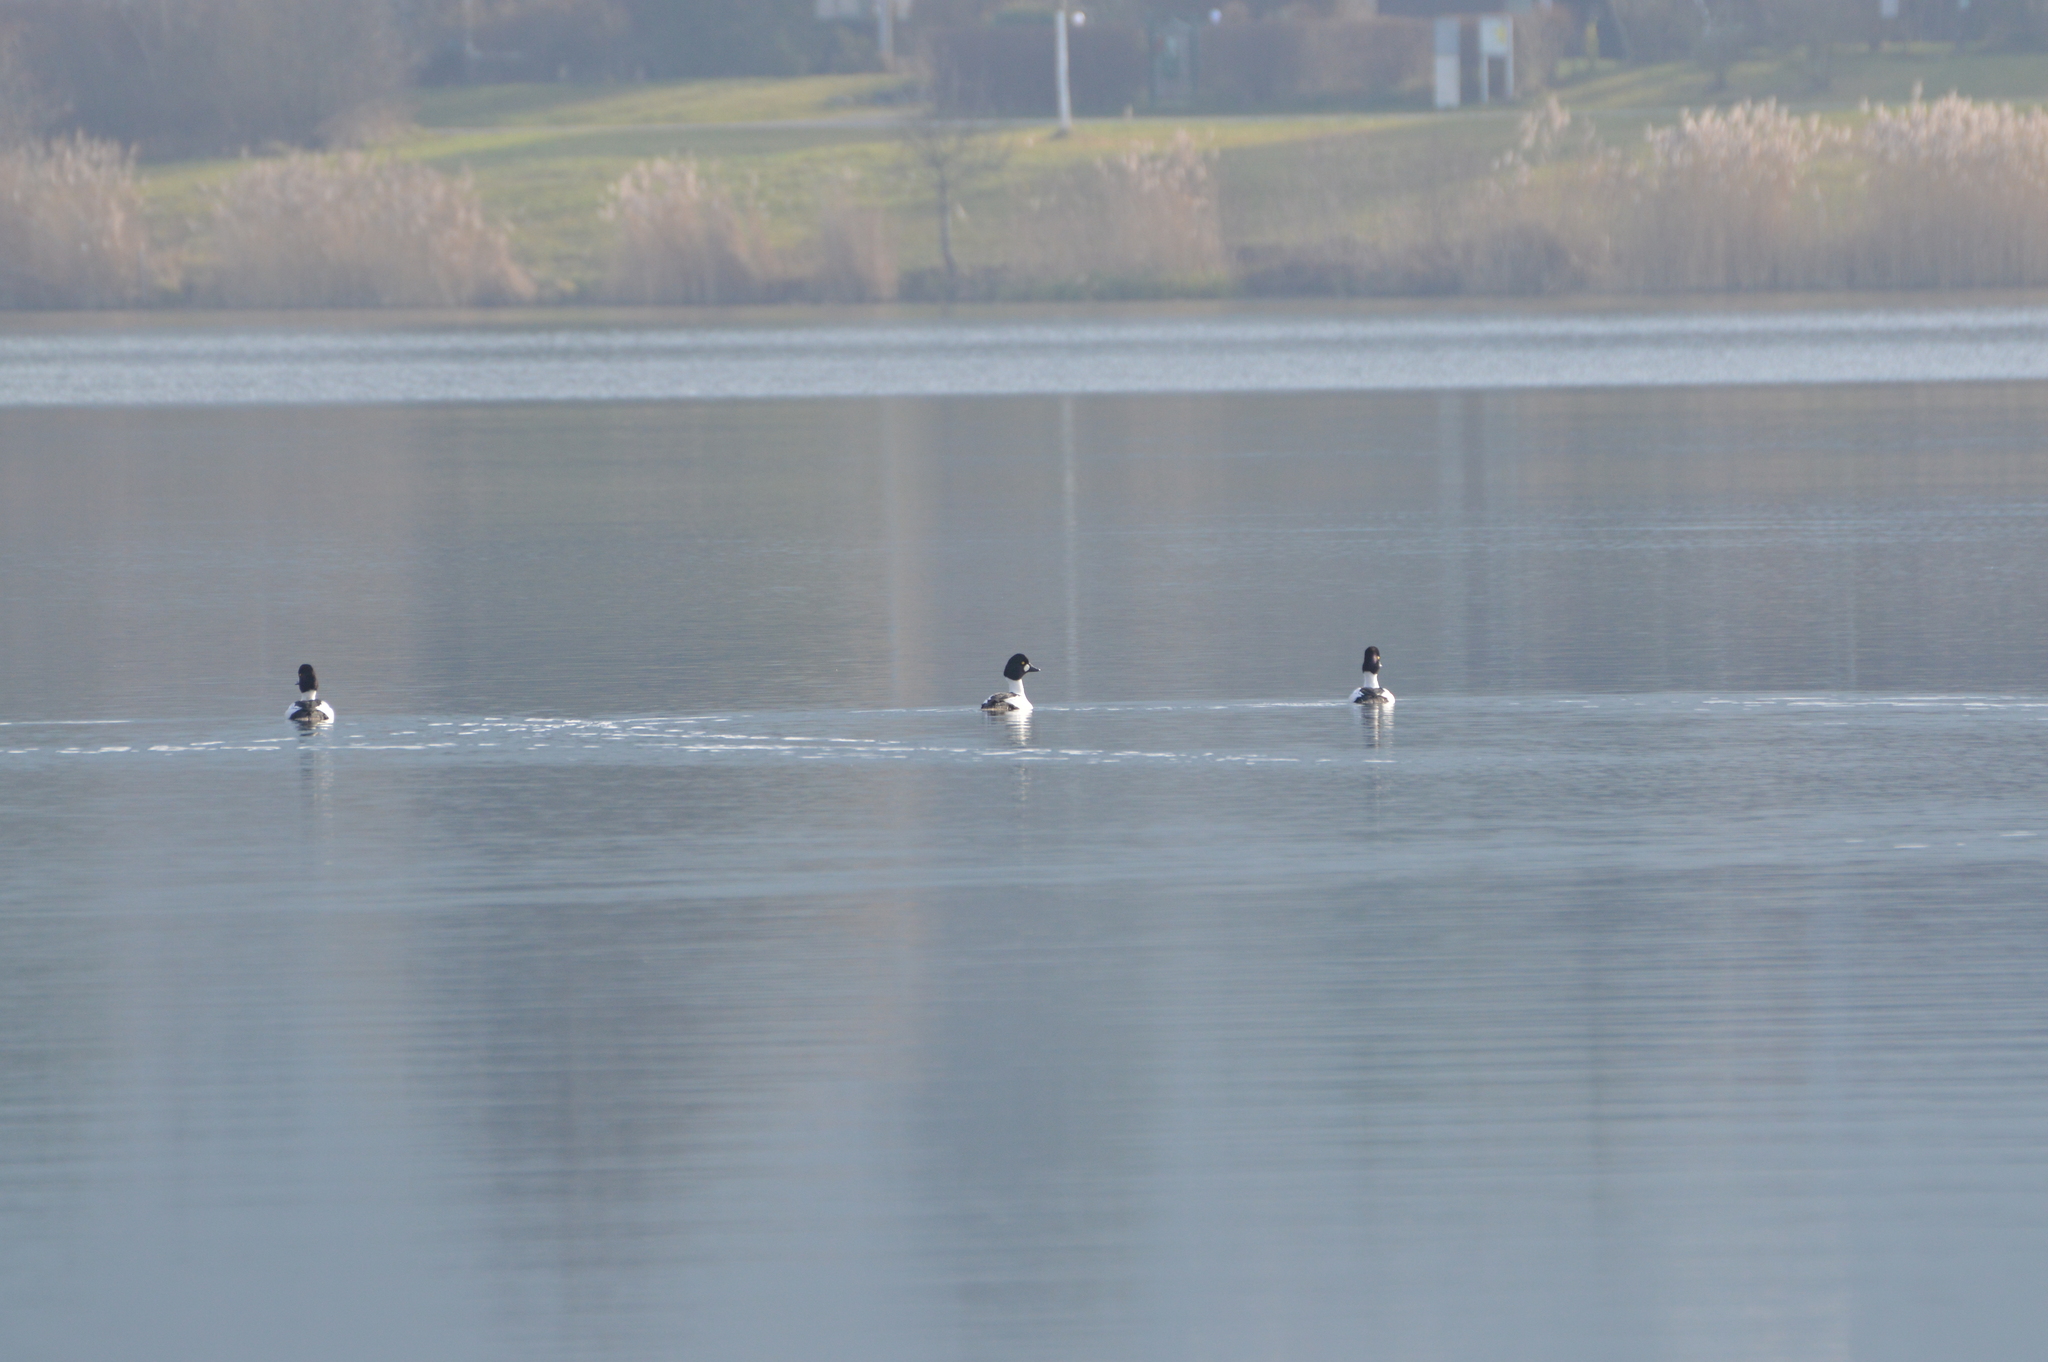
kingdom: Animalia
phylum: Chordata
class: Aves
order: Anseriformes
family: Anatidae
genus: Bucephala
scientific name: Bucephala clangula
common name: Common goldeneye
